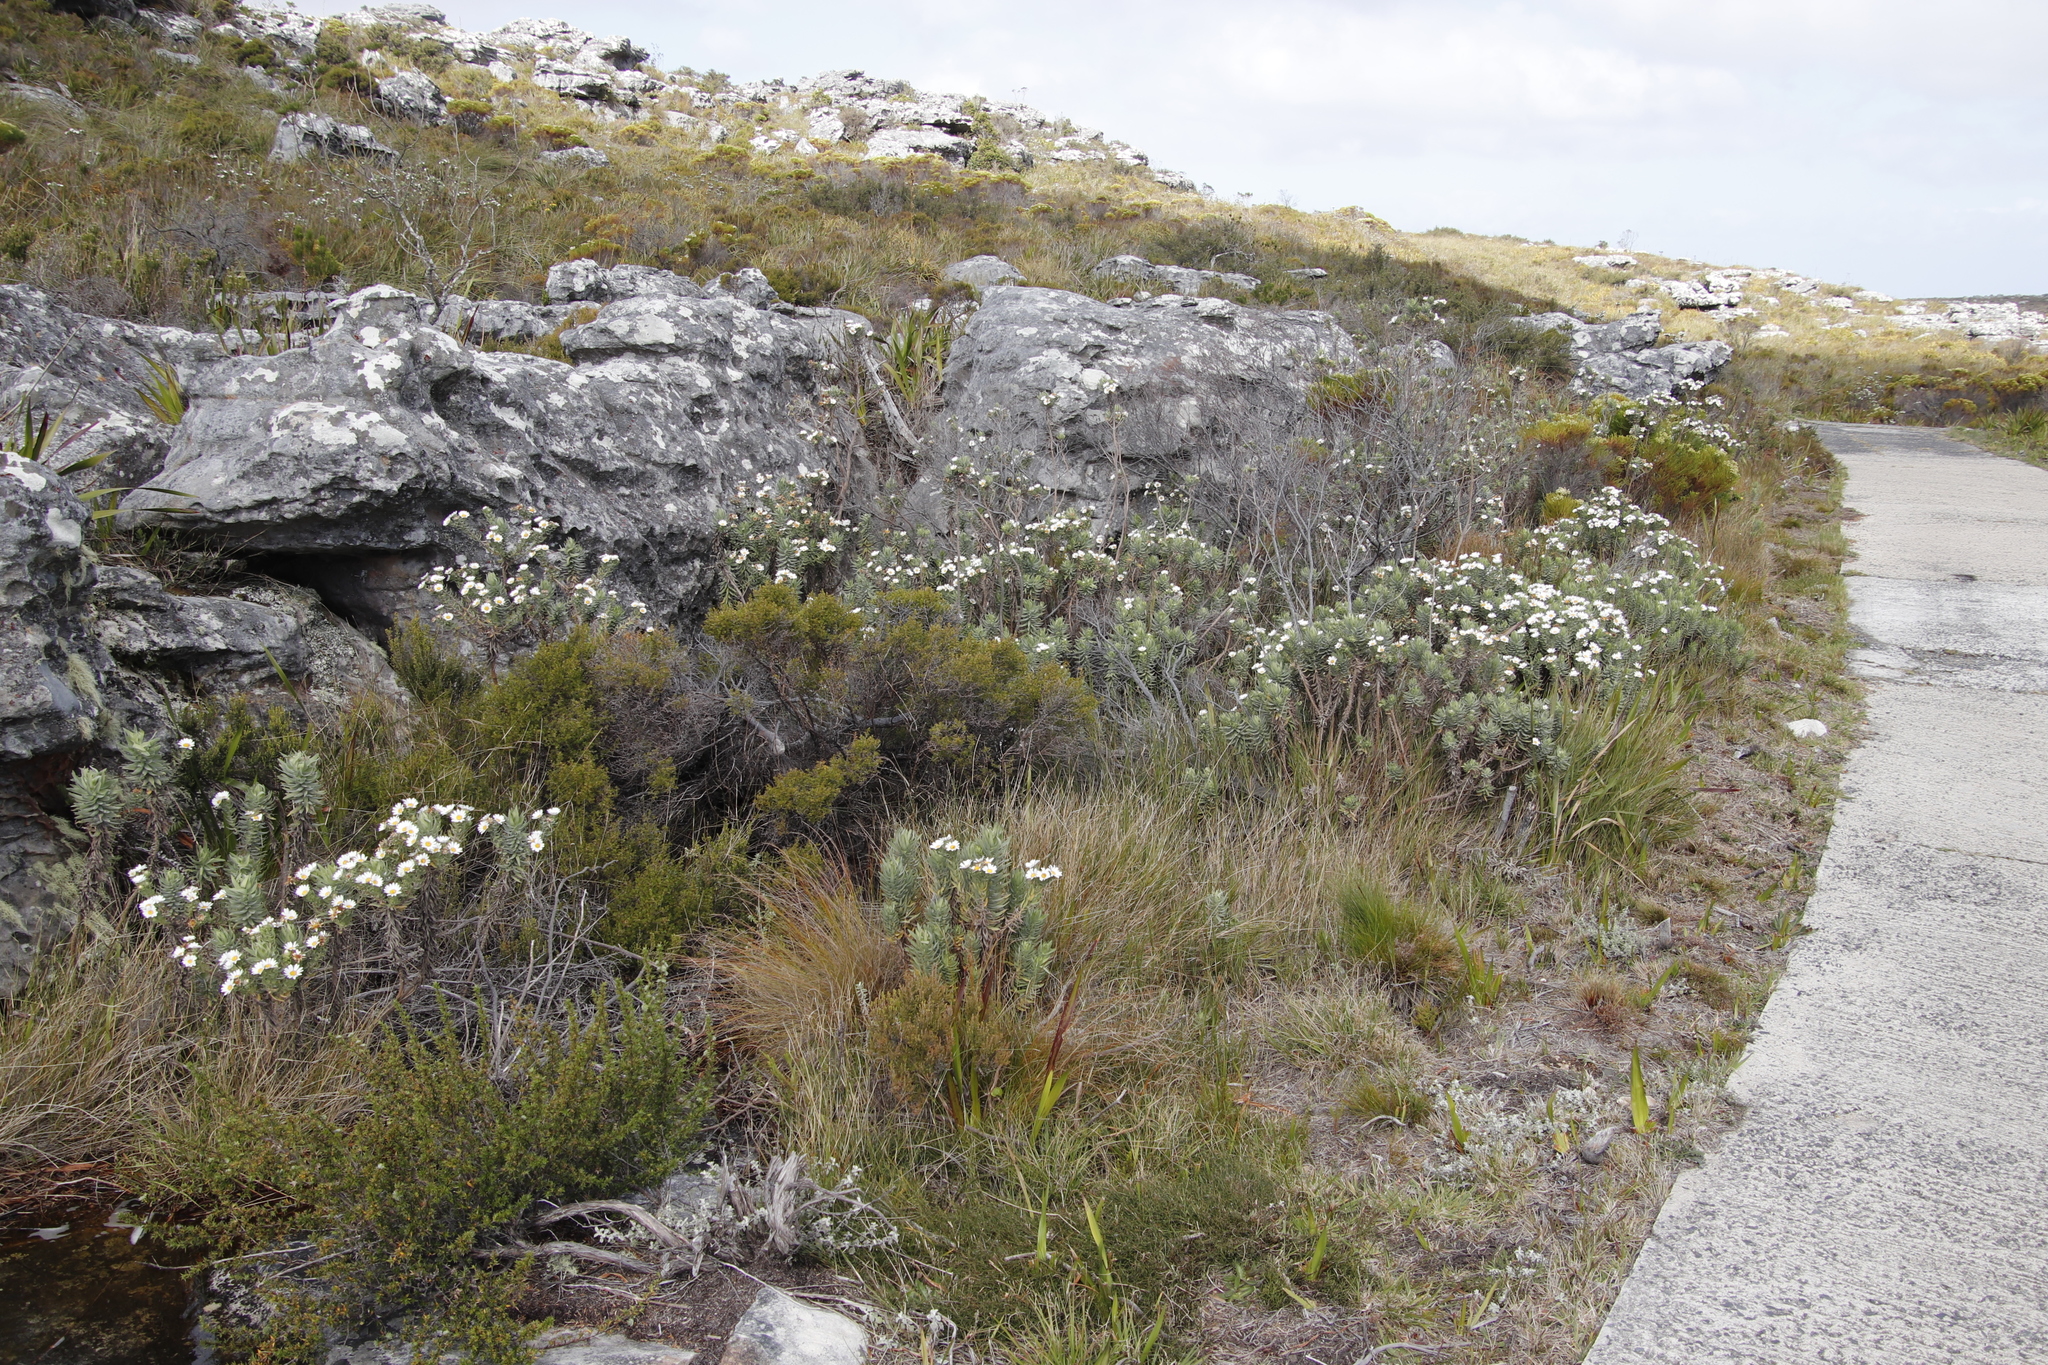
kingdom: Plantae
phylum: Tracheophyta
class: Magnoliopsida
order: Asterales
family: Asteraceae
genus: Osmitopsis
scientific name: Osmitopsis asteriscoides
